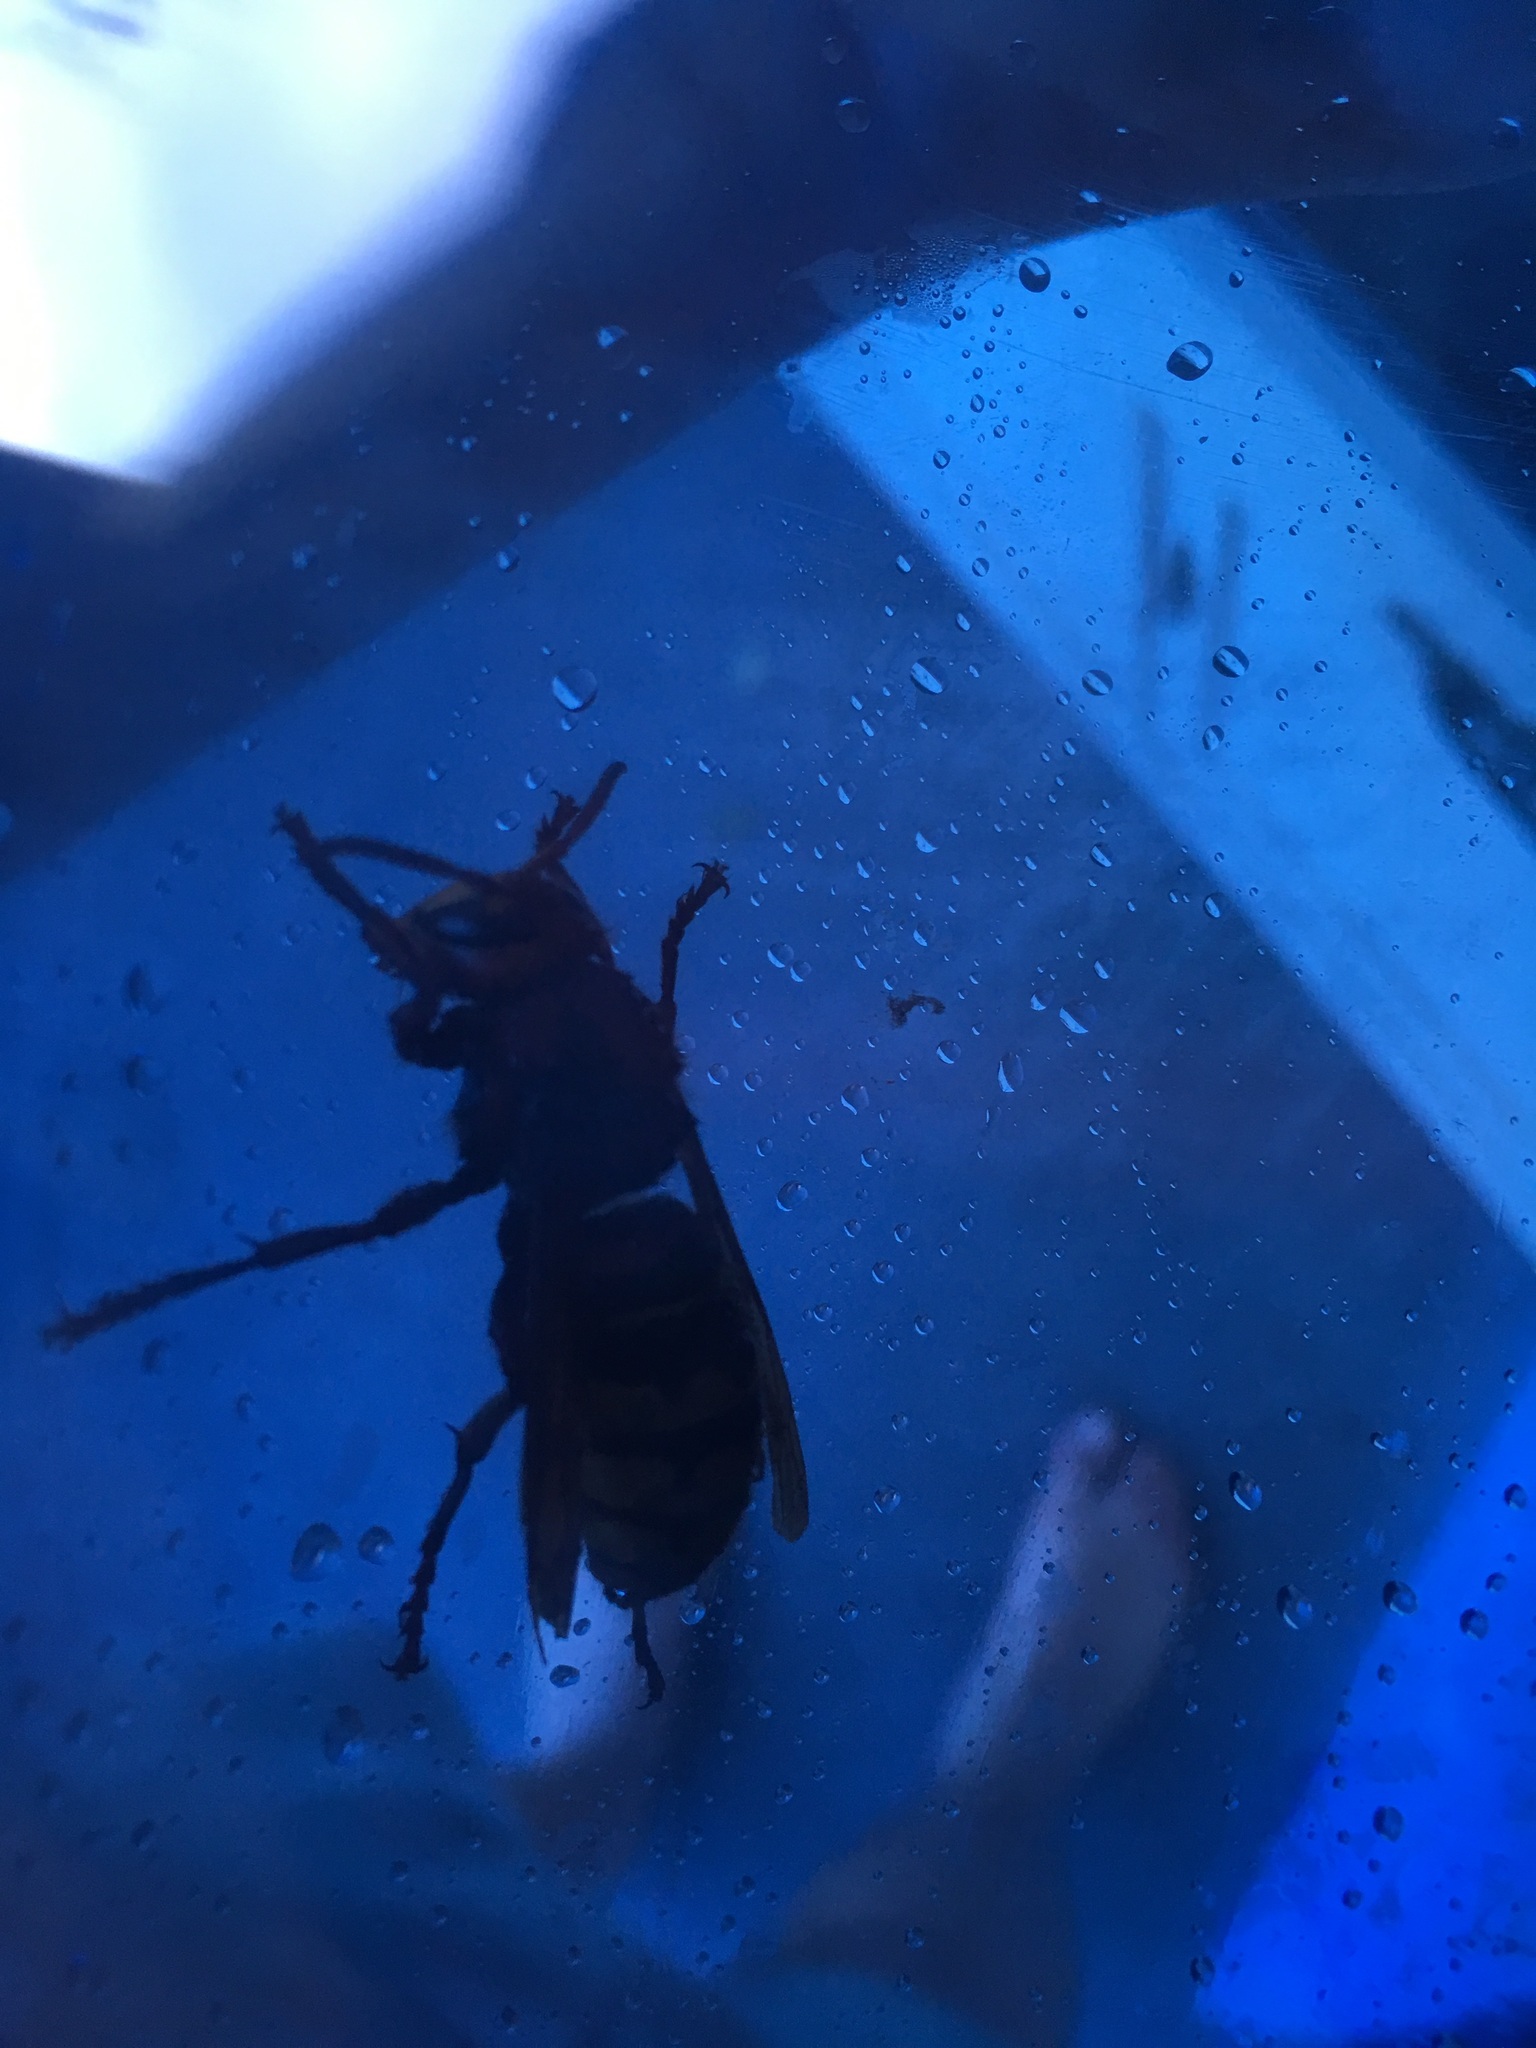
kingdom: Animalia
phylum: Arthropoda
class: Insecta
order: Hymenoptera
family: Vespidae
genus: Vespa
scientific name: Vespa crabro
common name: Hornet
